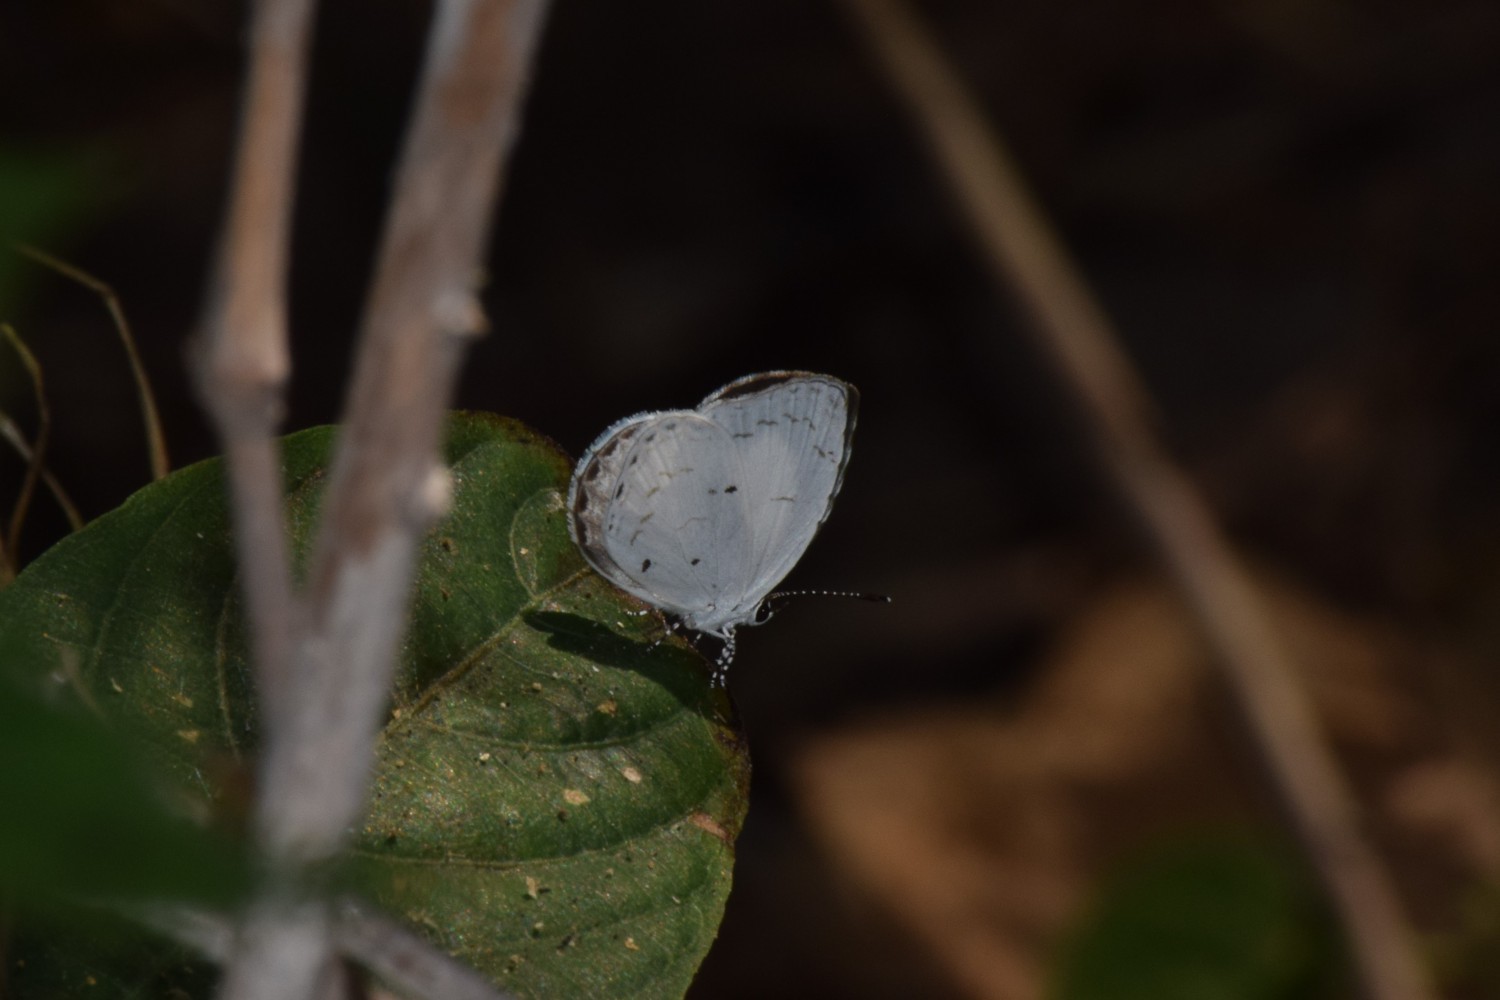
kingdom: Animalia
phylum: Arthropoda
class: Insecta
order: Lepidoptera
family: Lycaenidae
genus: Neopithecops
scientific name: Neopithecops zalmora
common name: Quaker
